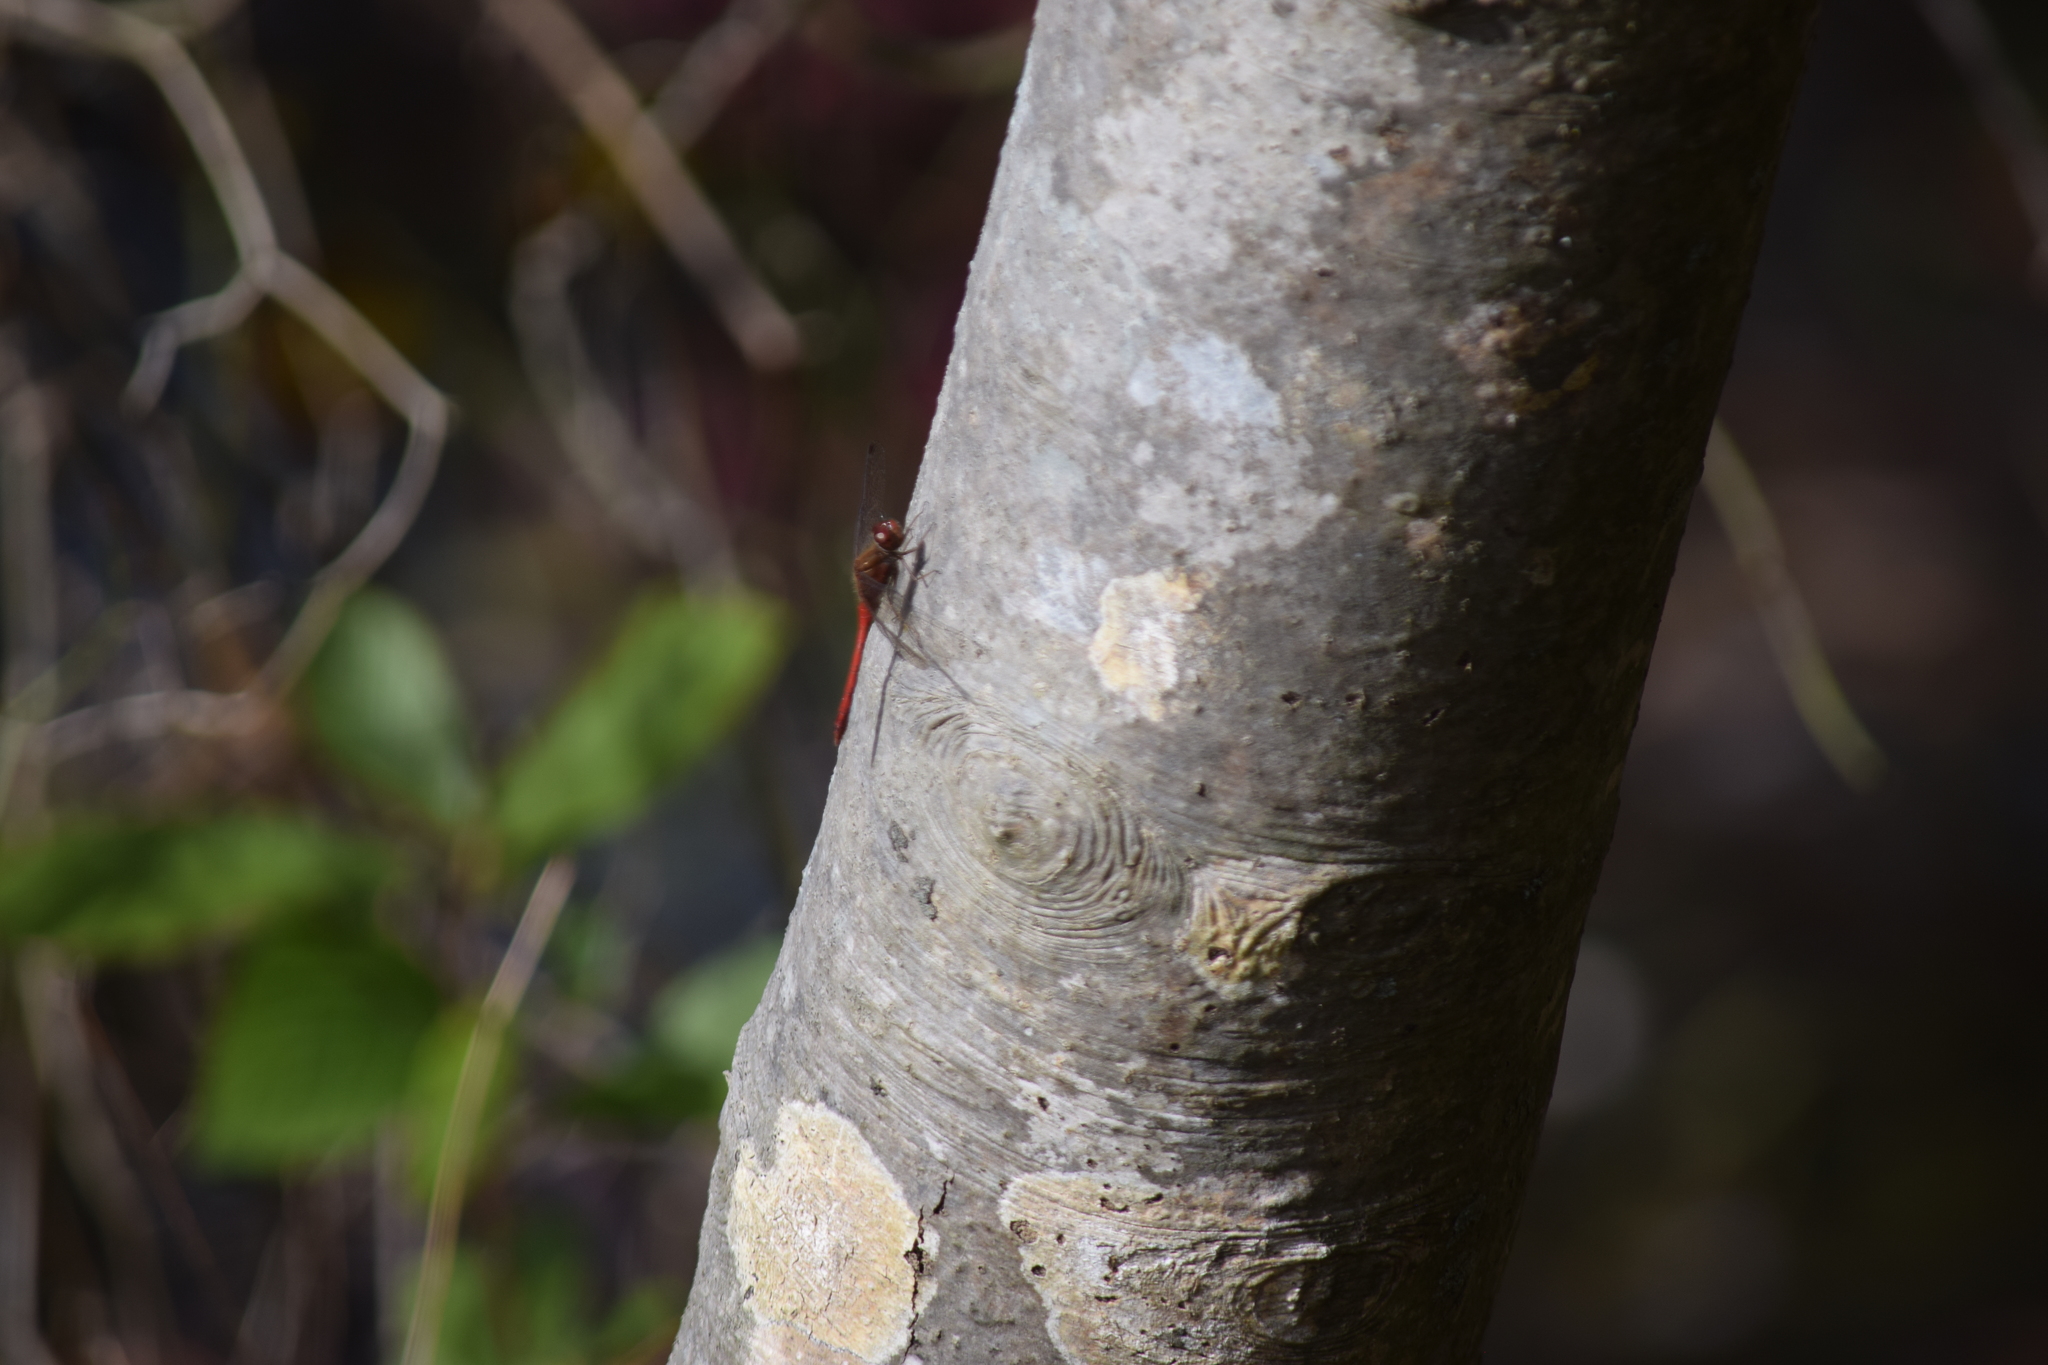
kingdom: Animalia
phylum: Arthropoda
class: Insecta
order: Odonata
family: Libellulidae
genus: Sympetrum
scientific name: Sympetrum vicinum
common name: Autumn meadowhawk
